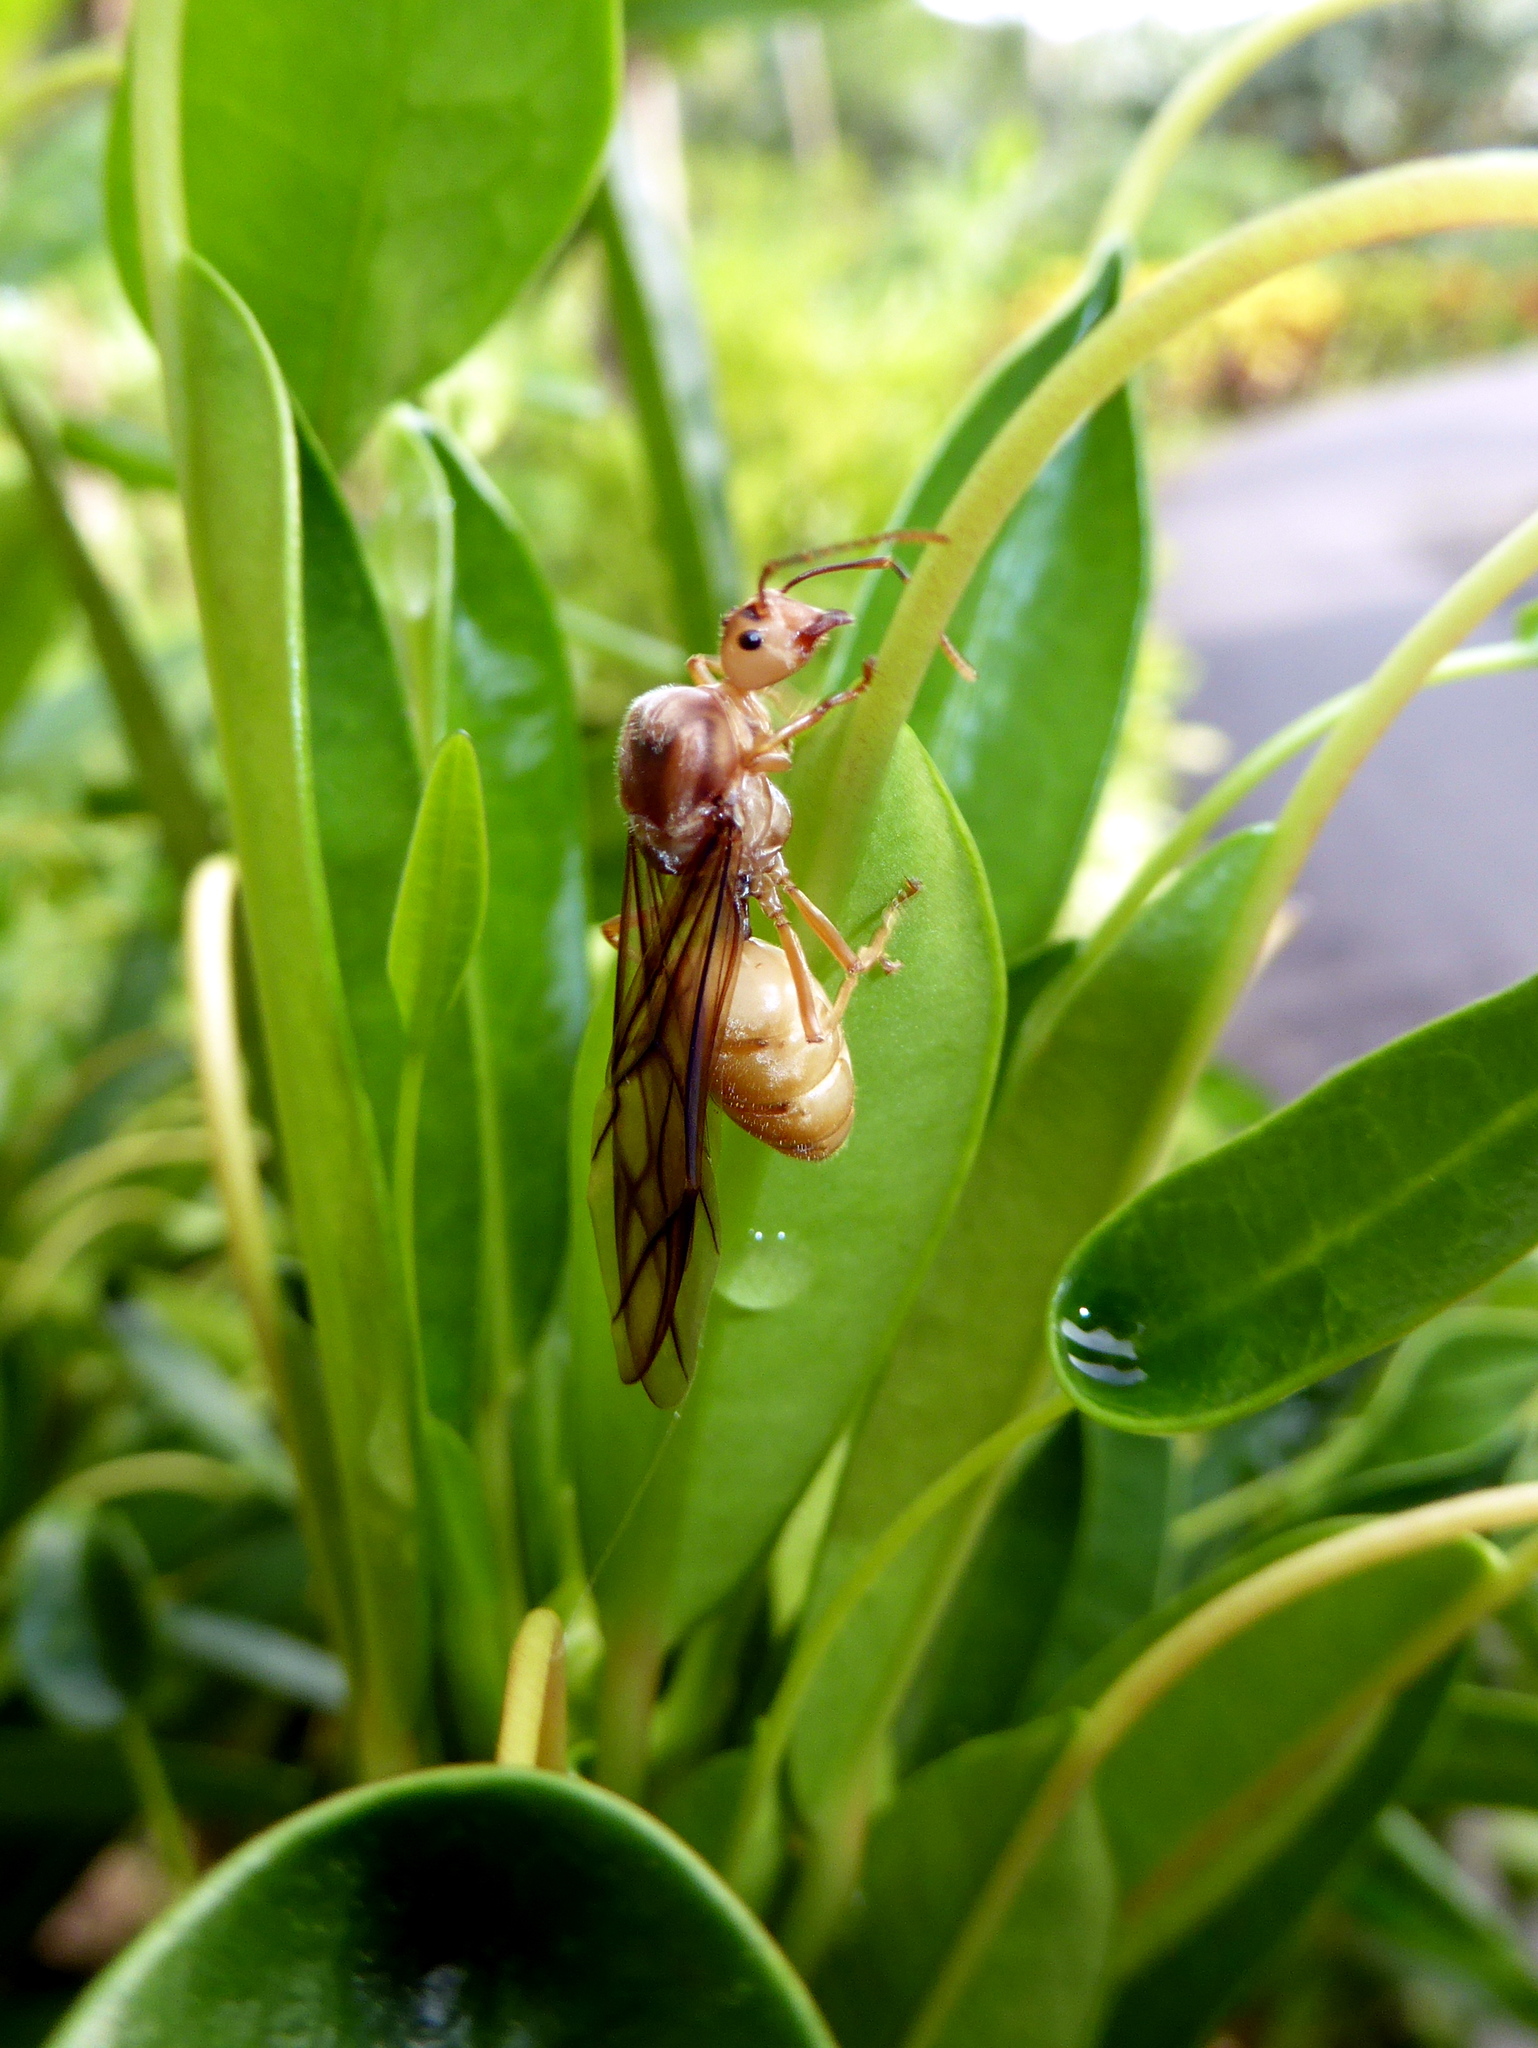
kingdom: Animalia
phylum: Arthropoda
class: Insecta
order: Hymenoptera
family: Formicidae
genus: Oecophylla
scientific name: Oecophylla smaragdina
